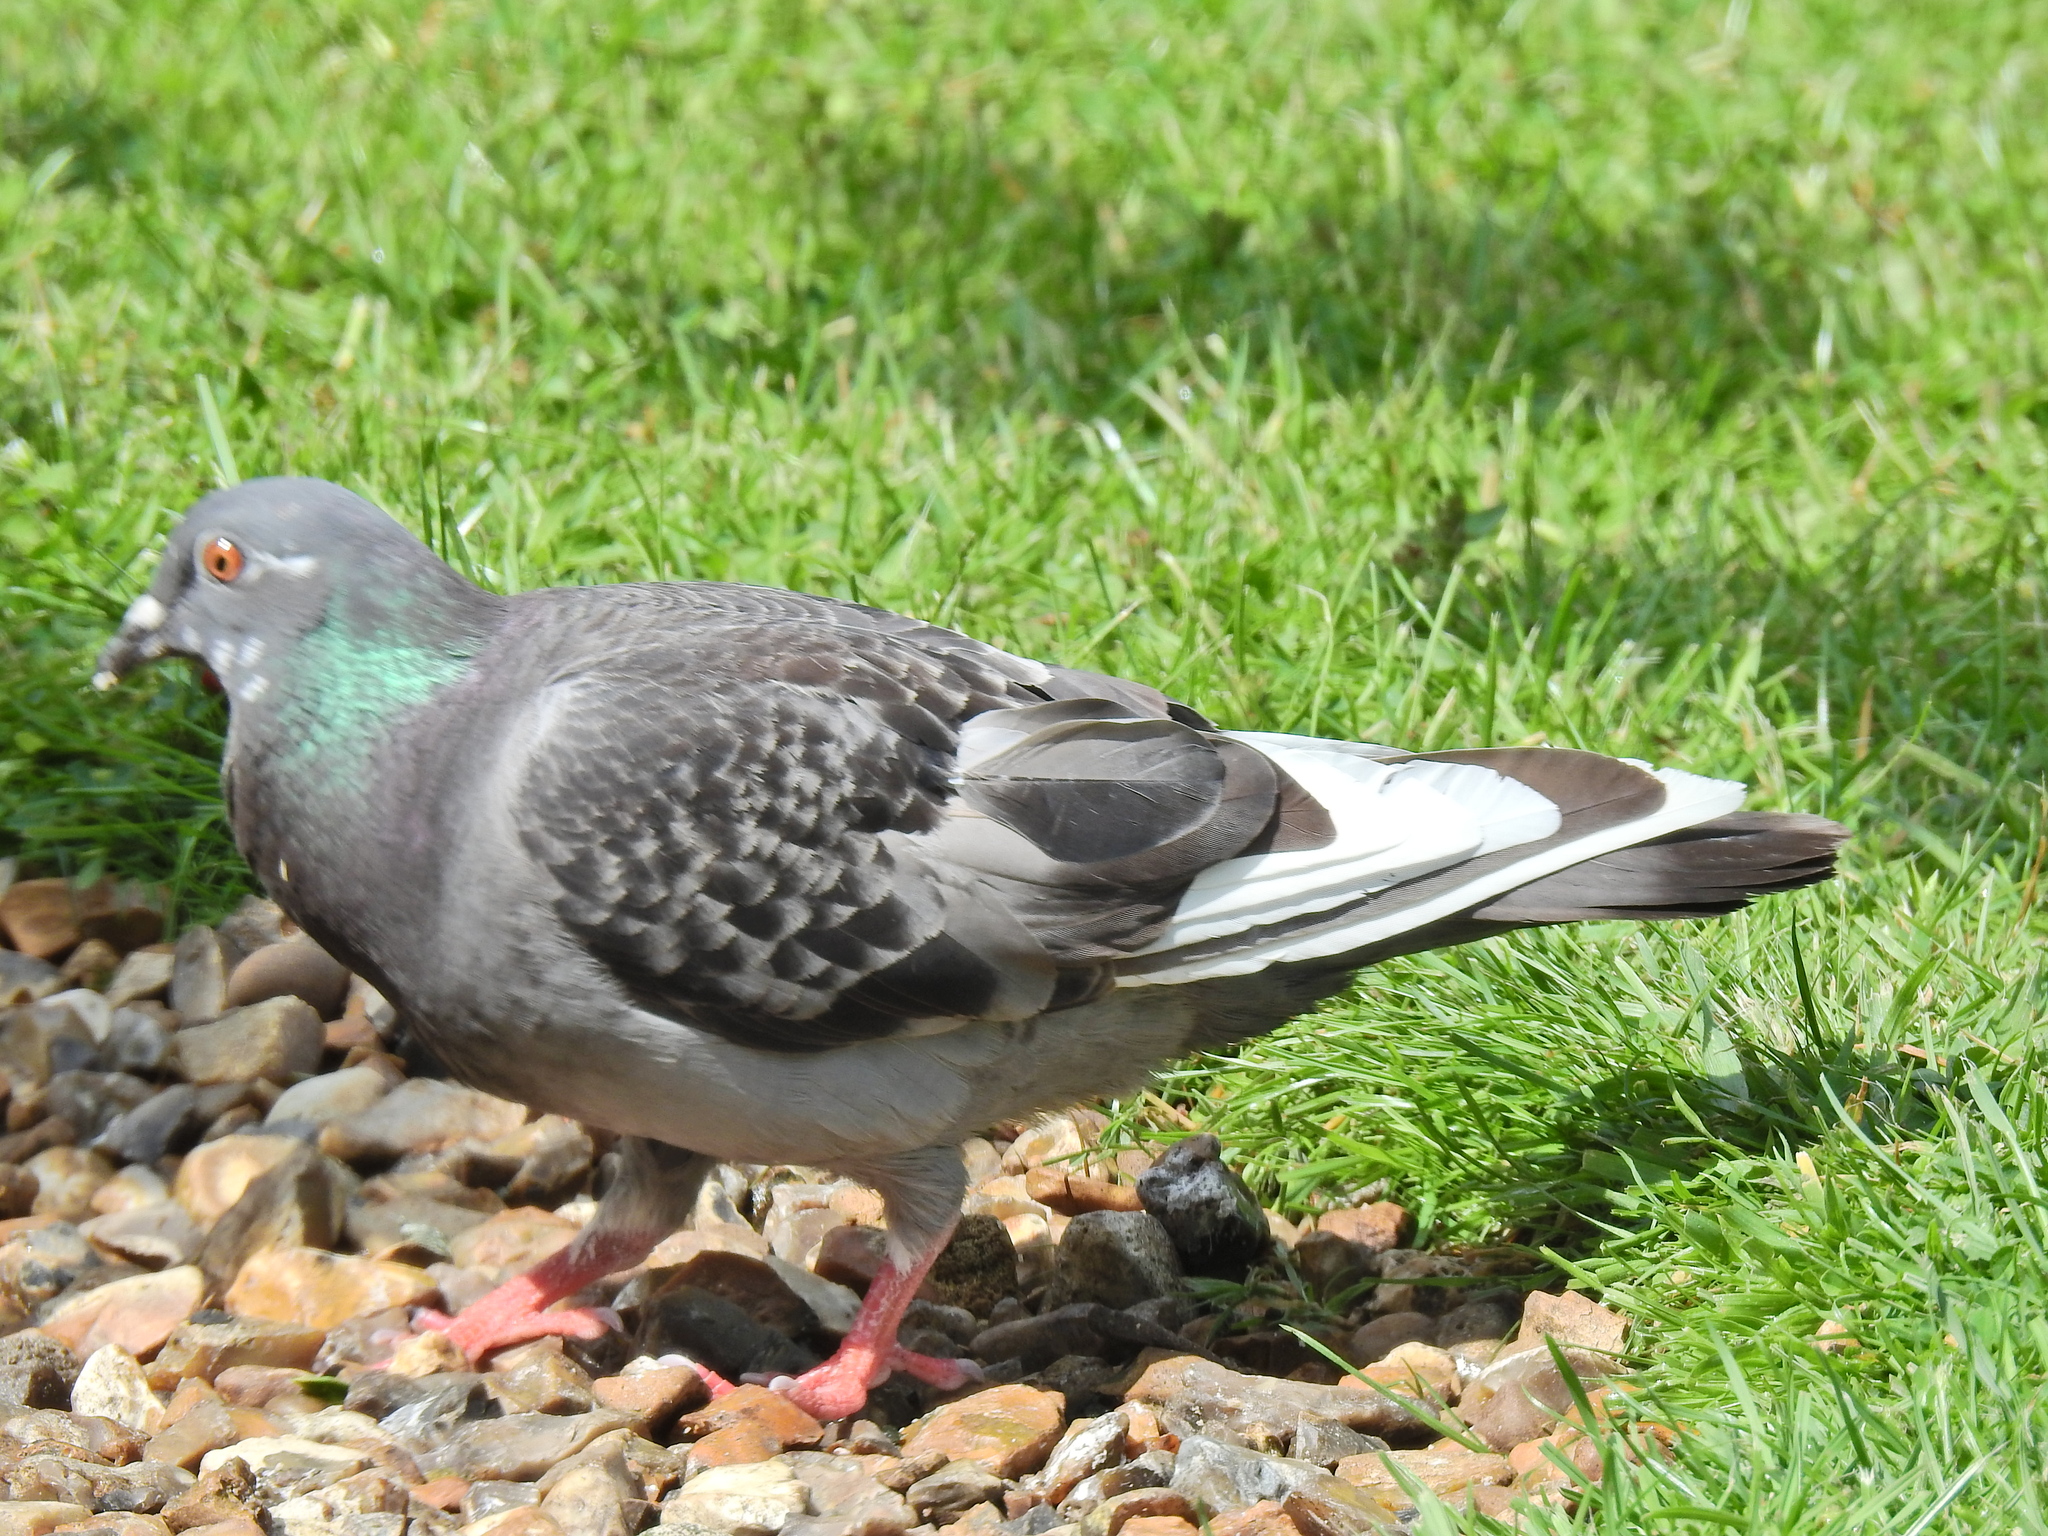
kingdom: Animalia
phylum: Chordata
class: Aves
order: Columbiformes
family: Columbidae
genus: Columba
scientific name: Columba livia
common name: Rock pigeon
